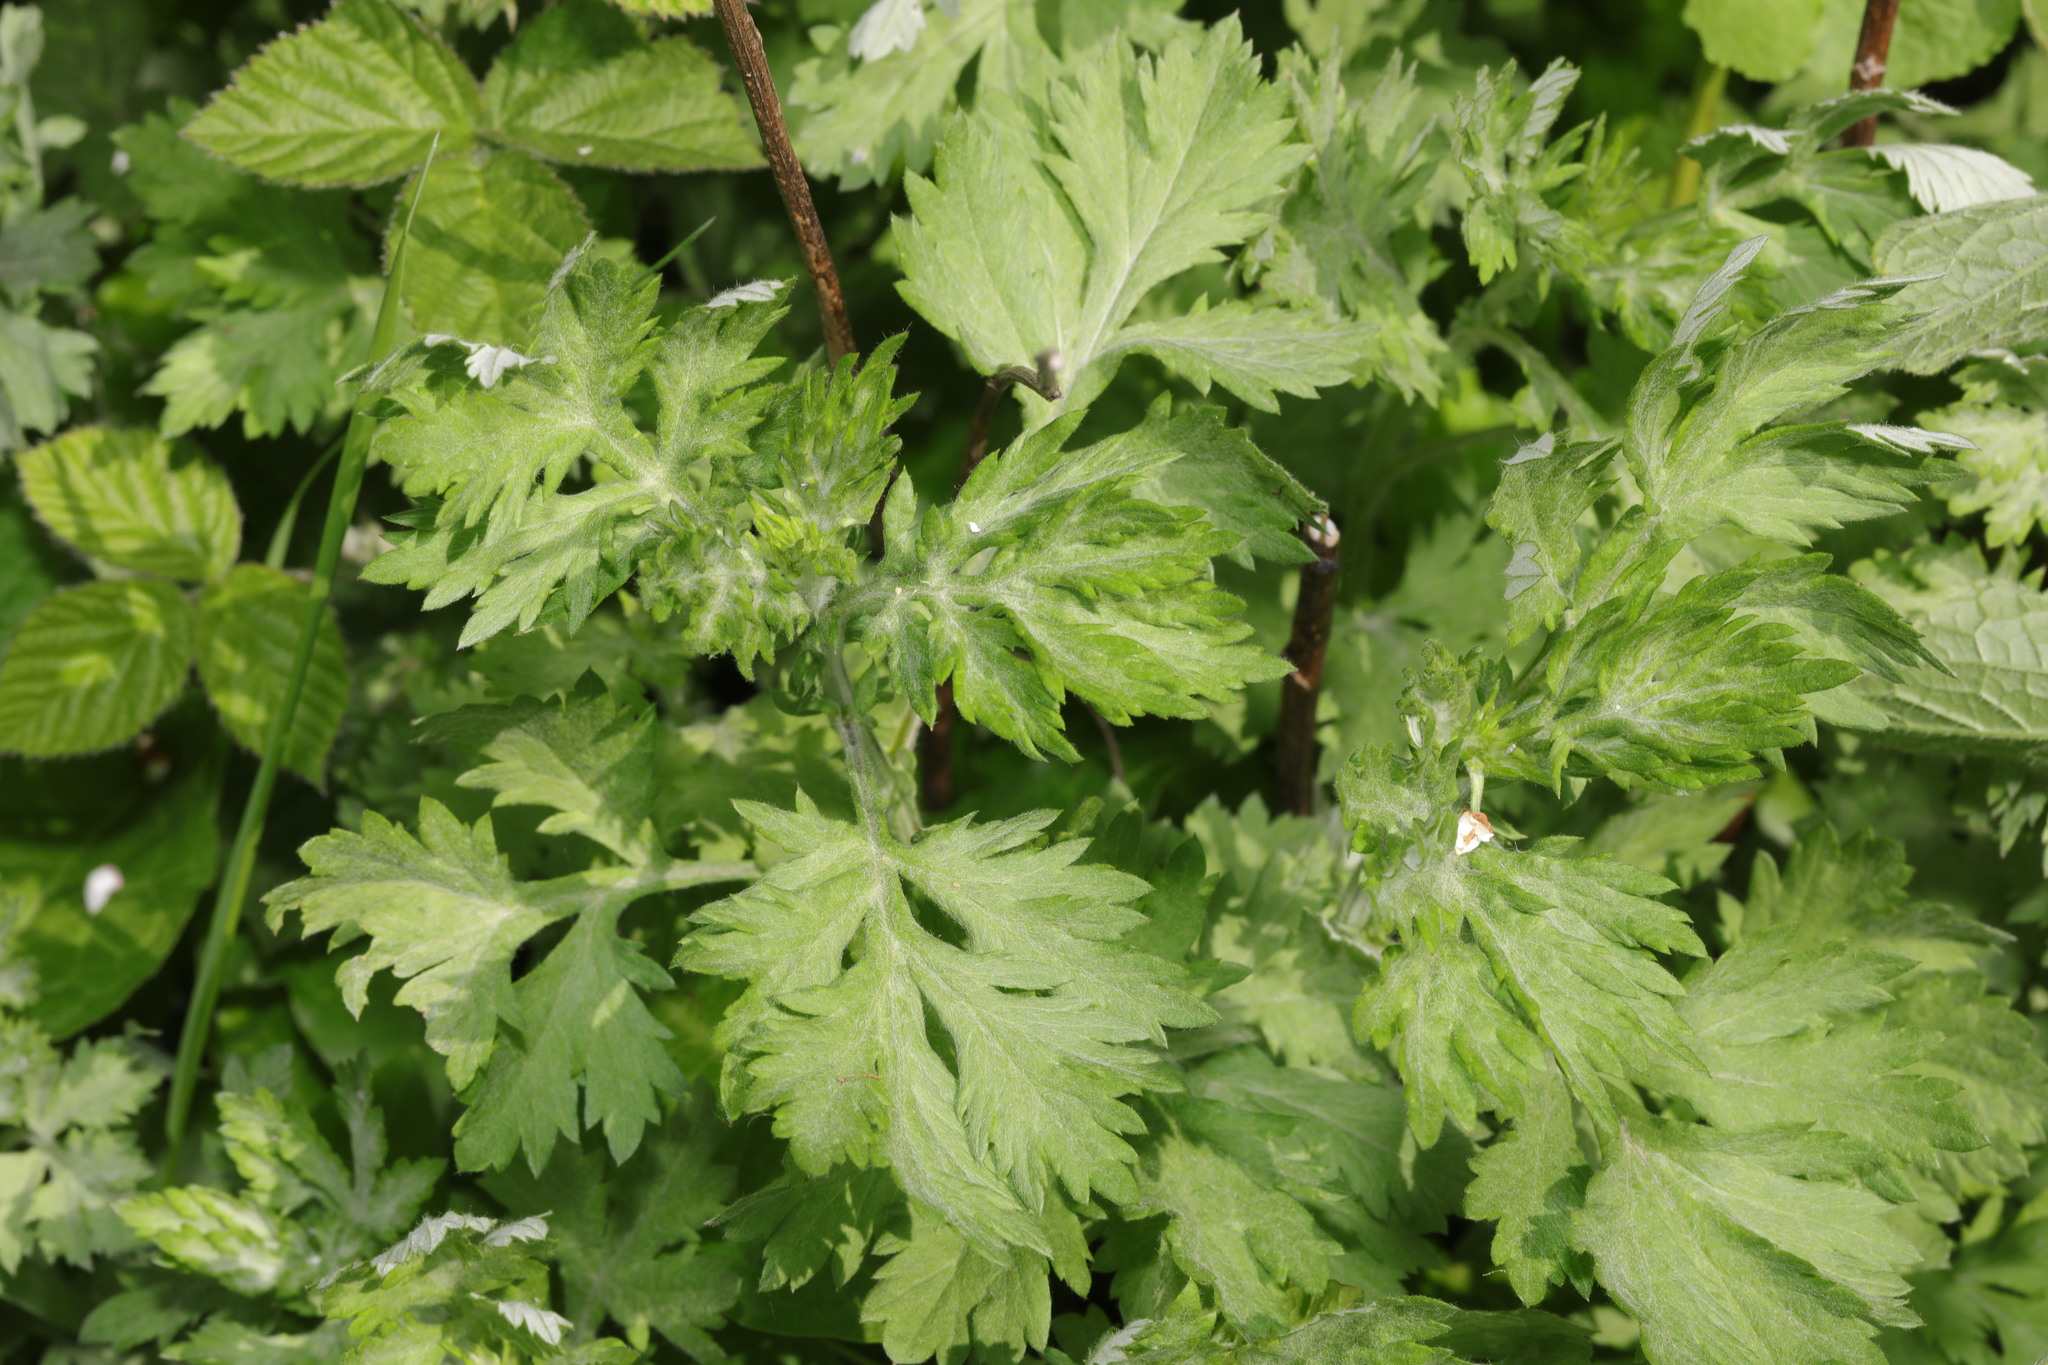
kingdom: Plantae
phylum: Tracheophyta
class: Magnoliopsida
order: Asterales
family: Asteraceae
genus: Artemisia
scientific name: Artemisia vulgaris
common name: Mugwort
